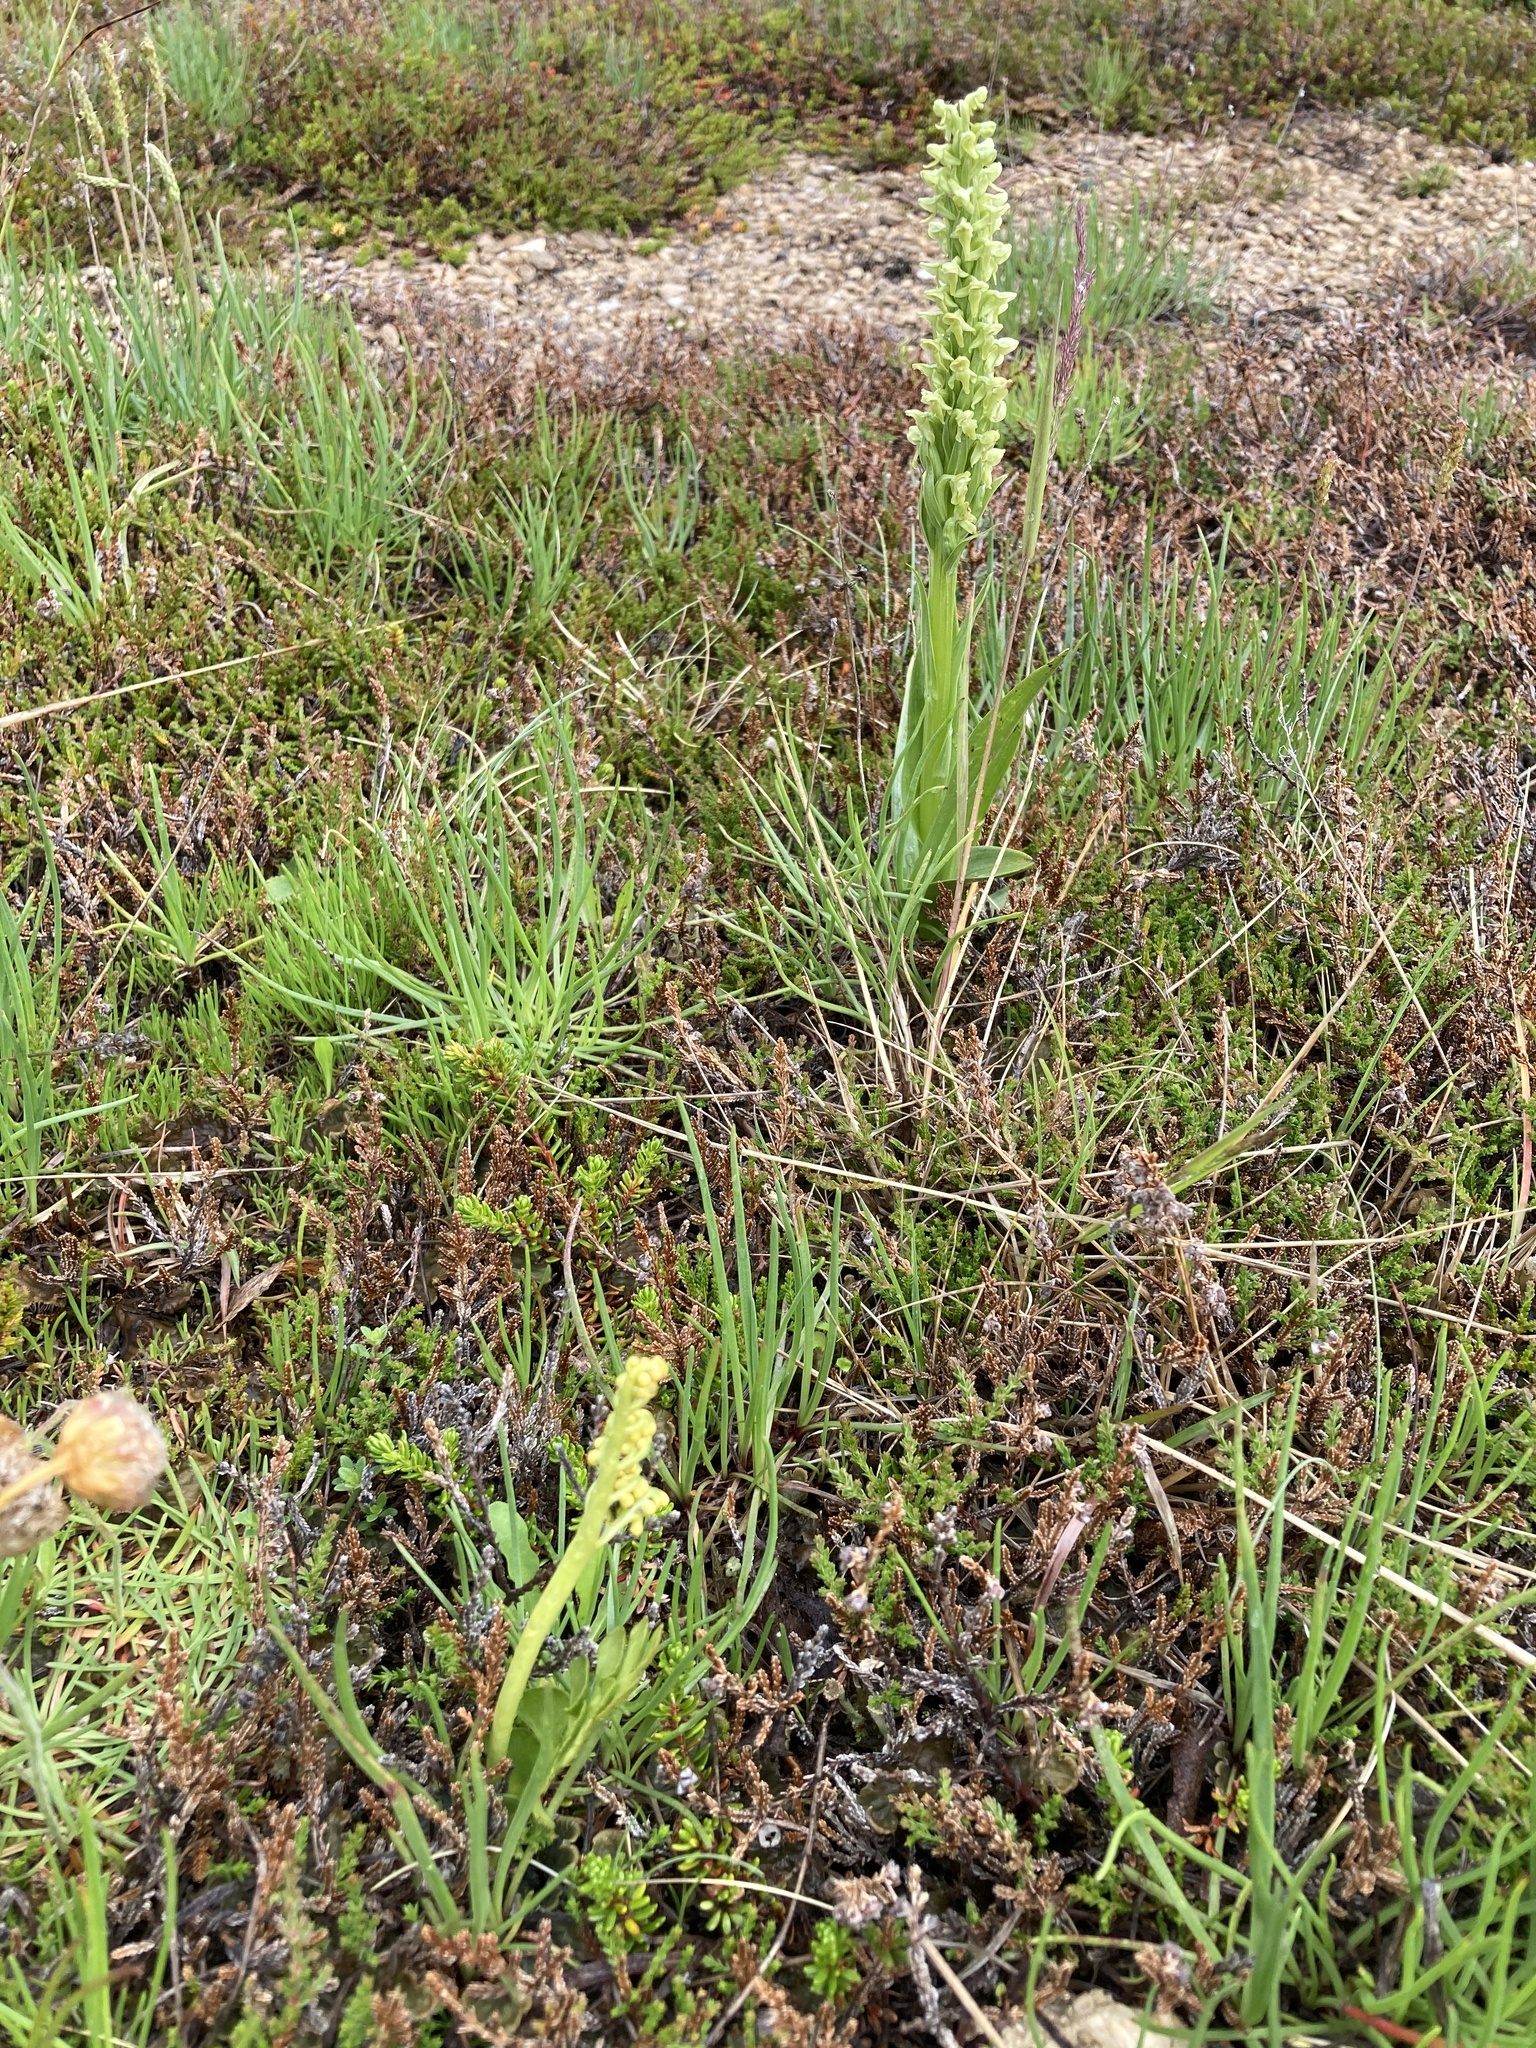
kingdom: Plantae
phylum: Tracheophyta
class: Polypodiopsida
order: Ophioglossales
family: Ophioglossaceae
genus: Botrychium
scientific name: Botrychium lunaria
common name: Moonwort
